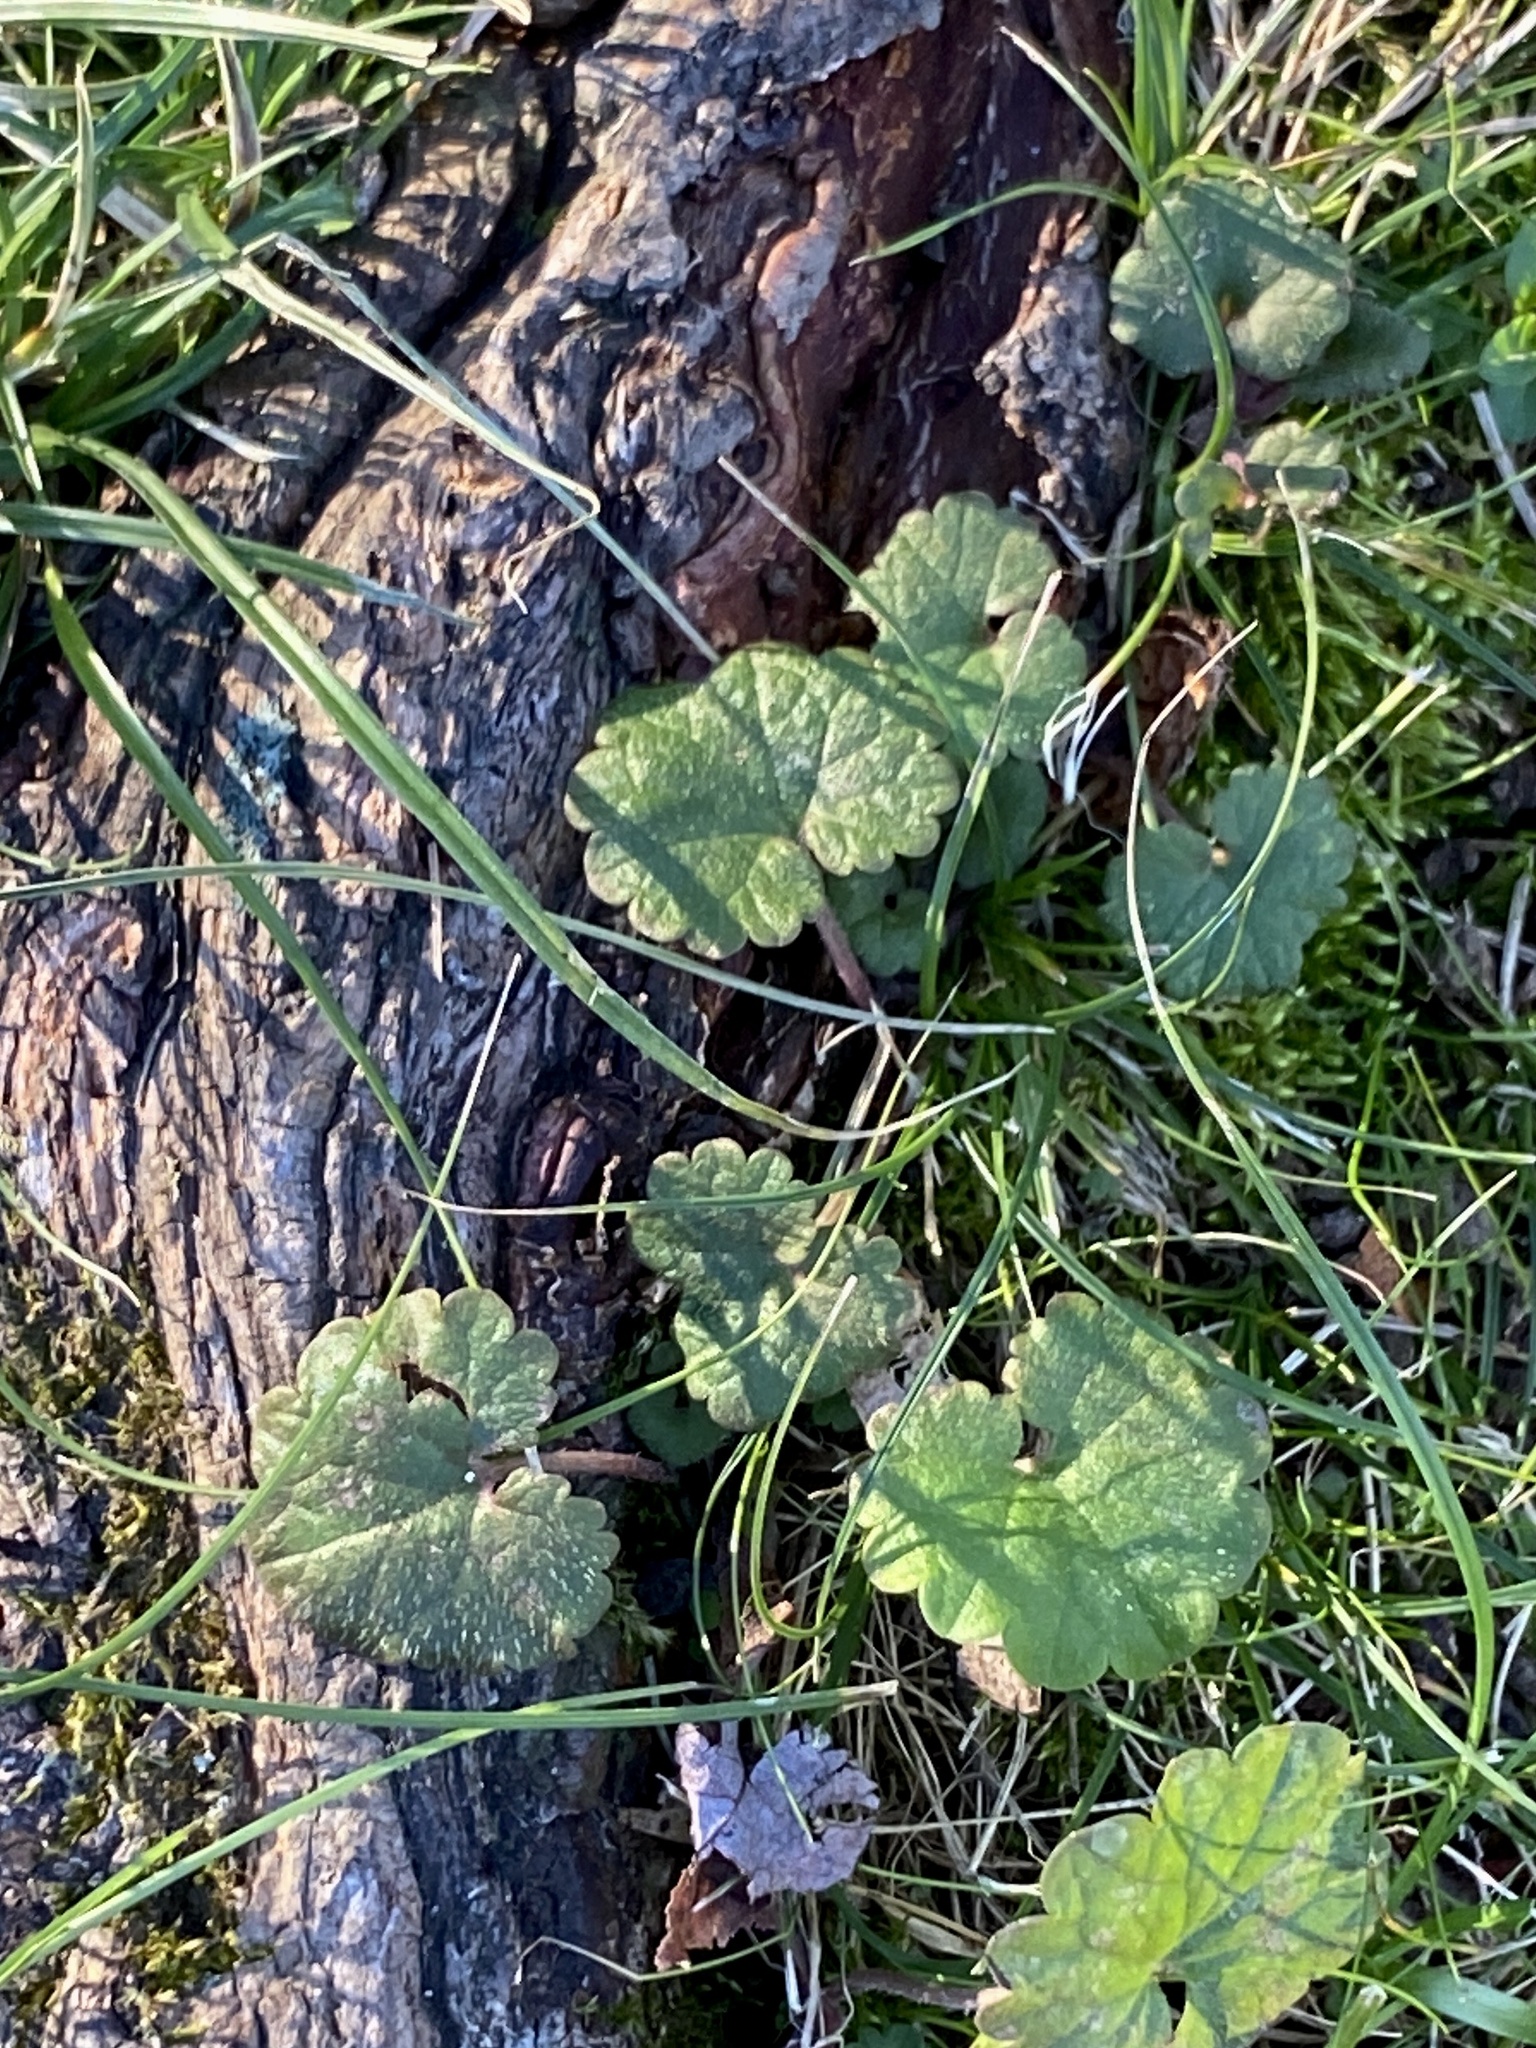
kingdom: Plantae
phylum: Tracheophyta
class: Magnoliopsida
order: Lamiales
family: Lamiaceae
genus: Glechoma
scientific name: Glechoma hederacea
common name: Ground ivy
